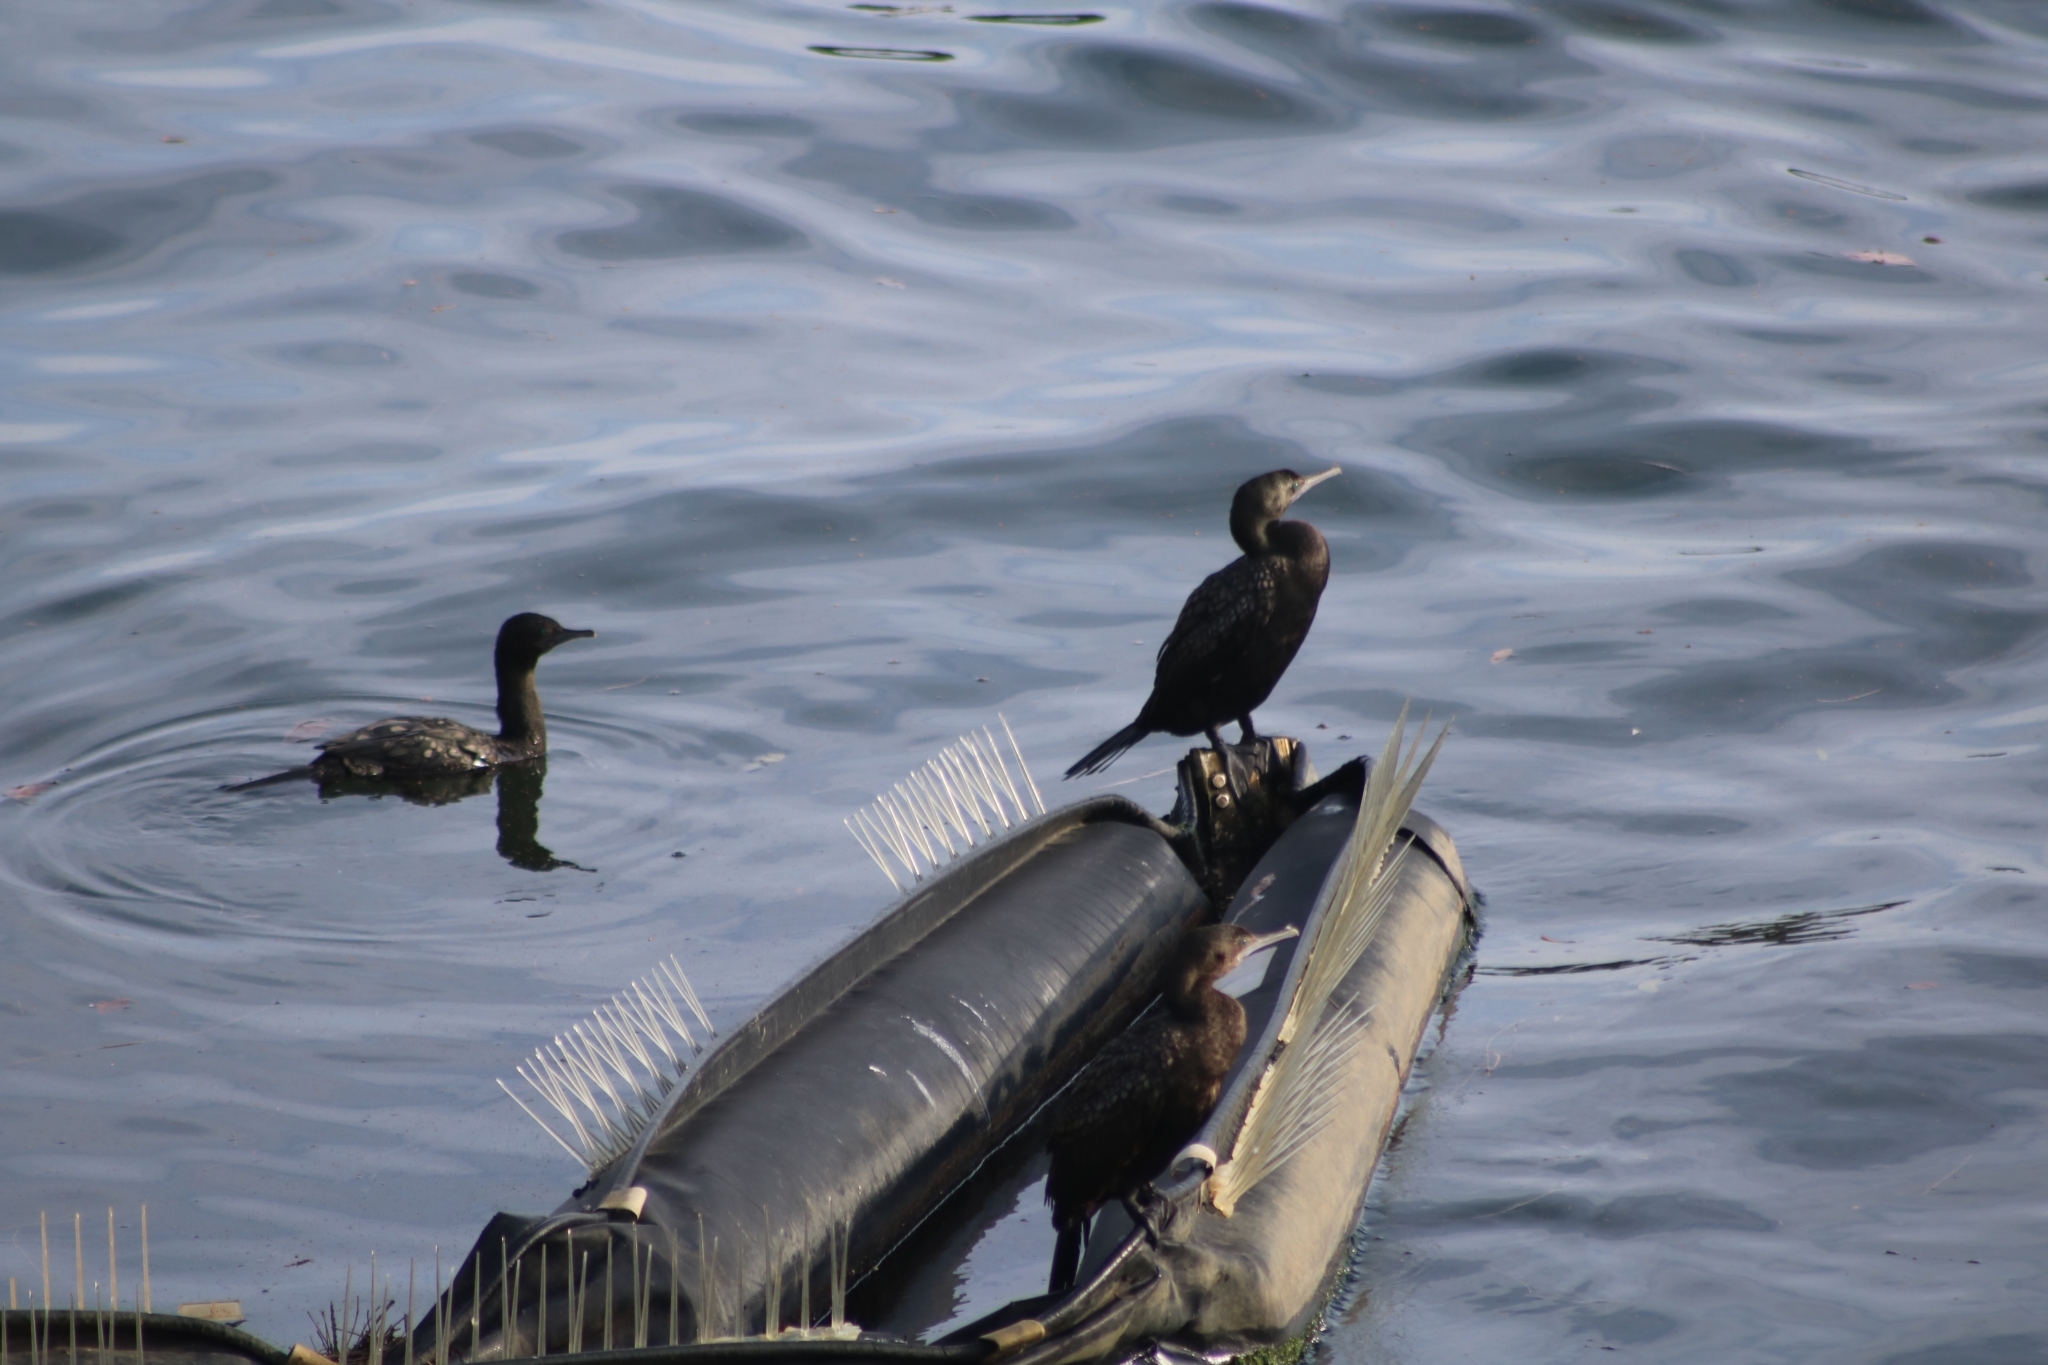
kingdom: Animalia
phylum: Chordata
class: Aves
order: Suliformes
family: Phalacrocoracidae
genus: Phalacrocorax
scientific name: Phalacrocorax sulcirostris
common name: Little black cormorant
